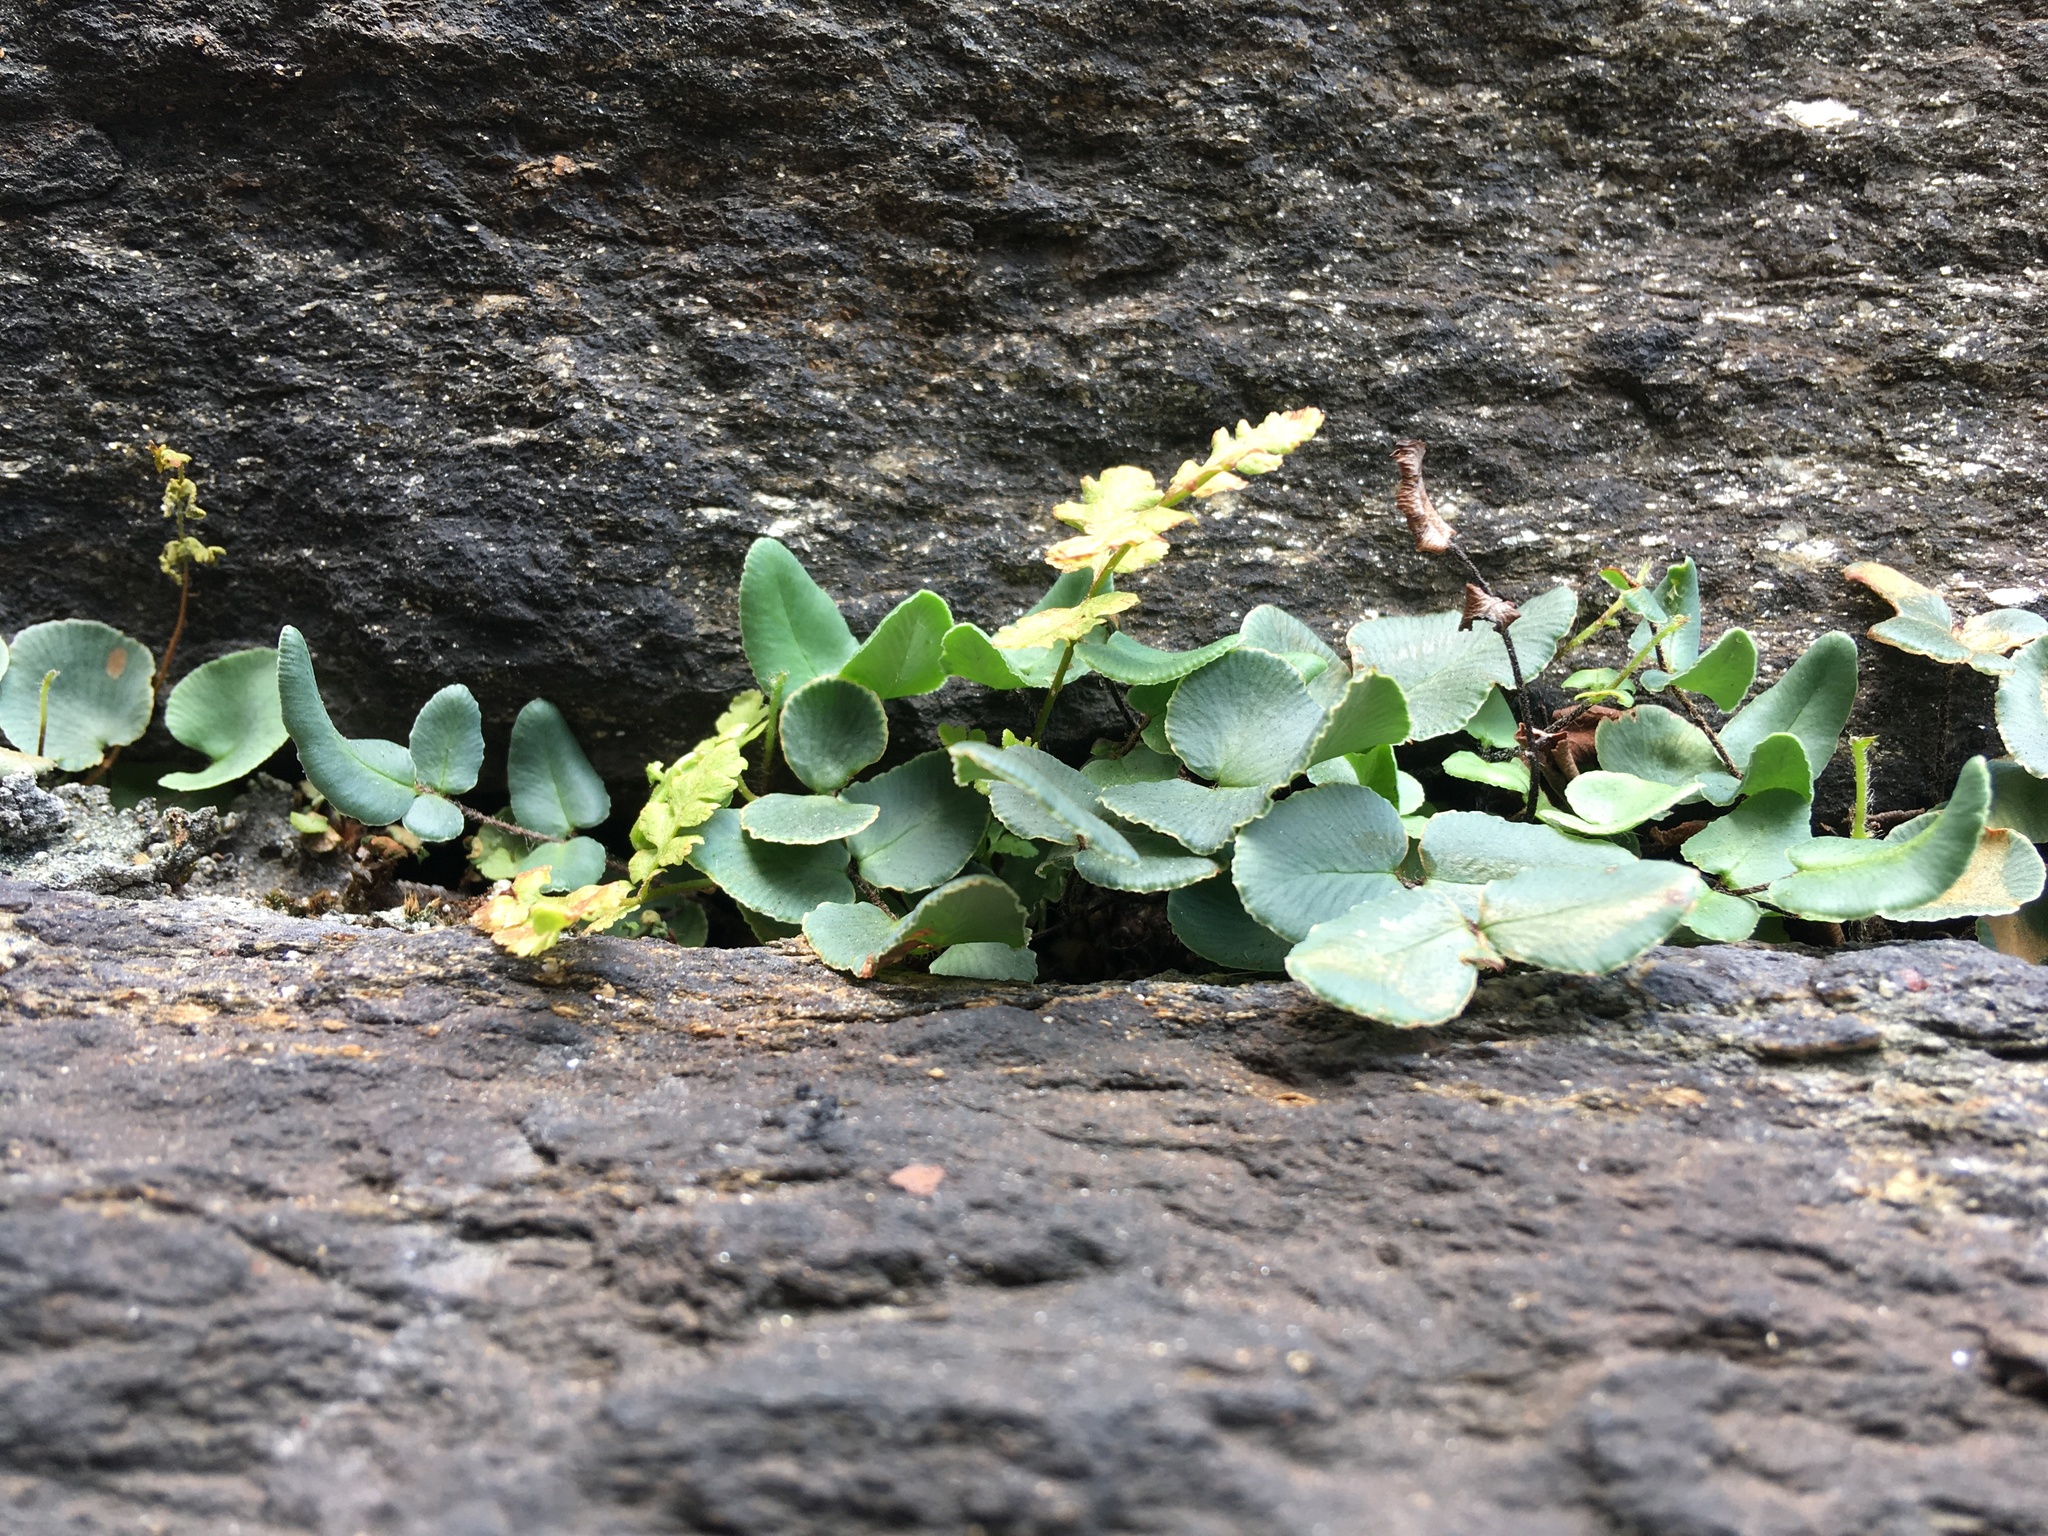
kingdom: Plantae
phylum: Tracheophyta
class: Polypodiopsida
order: Polypodiales
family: Pteridaceae
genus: Pellaea
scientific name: Pellaea atropurpurea
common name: Hairy cliffbrake
